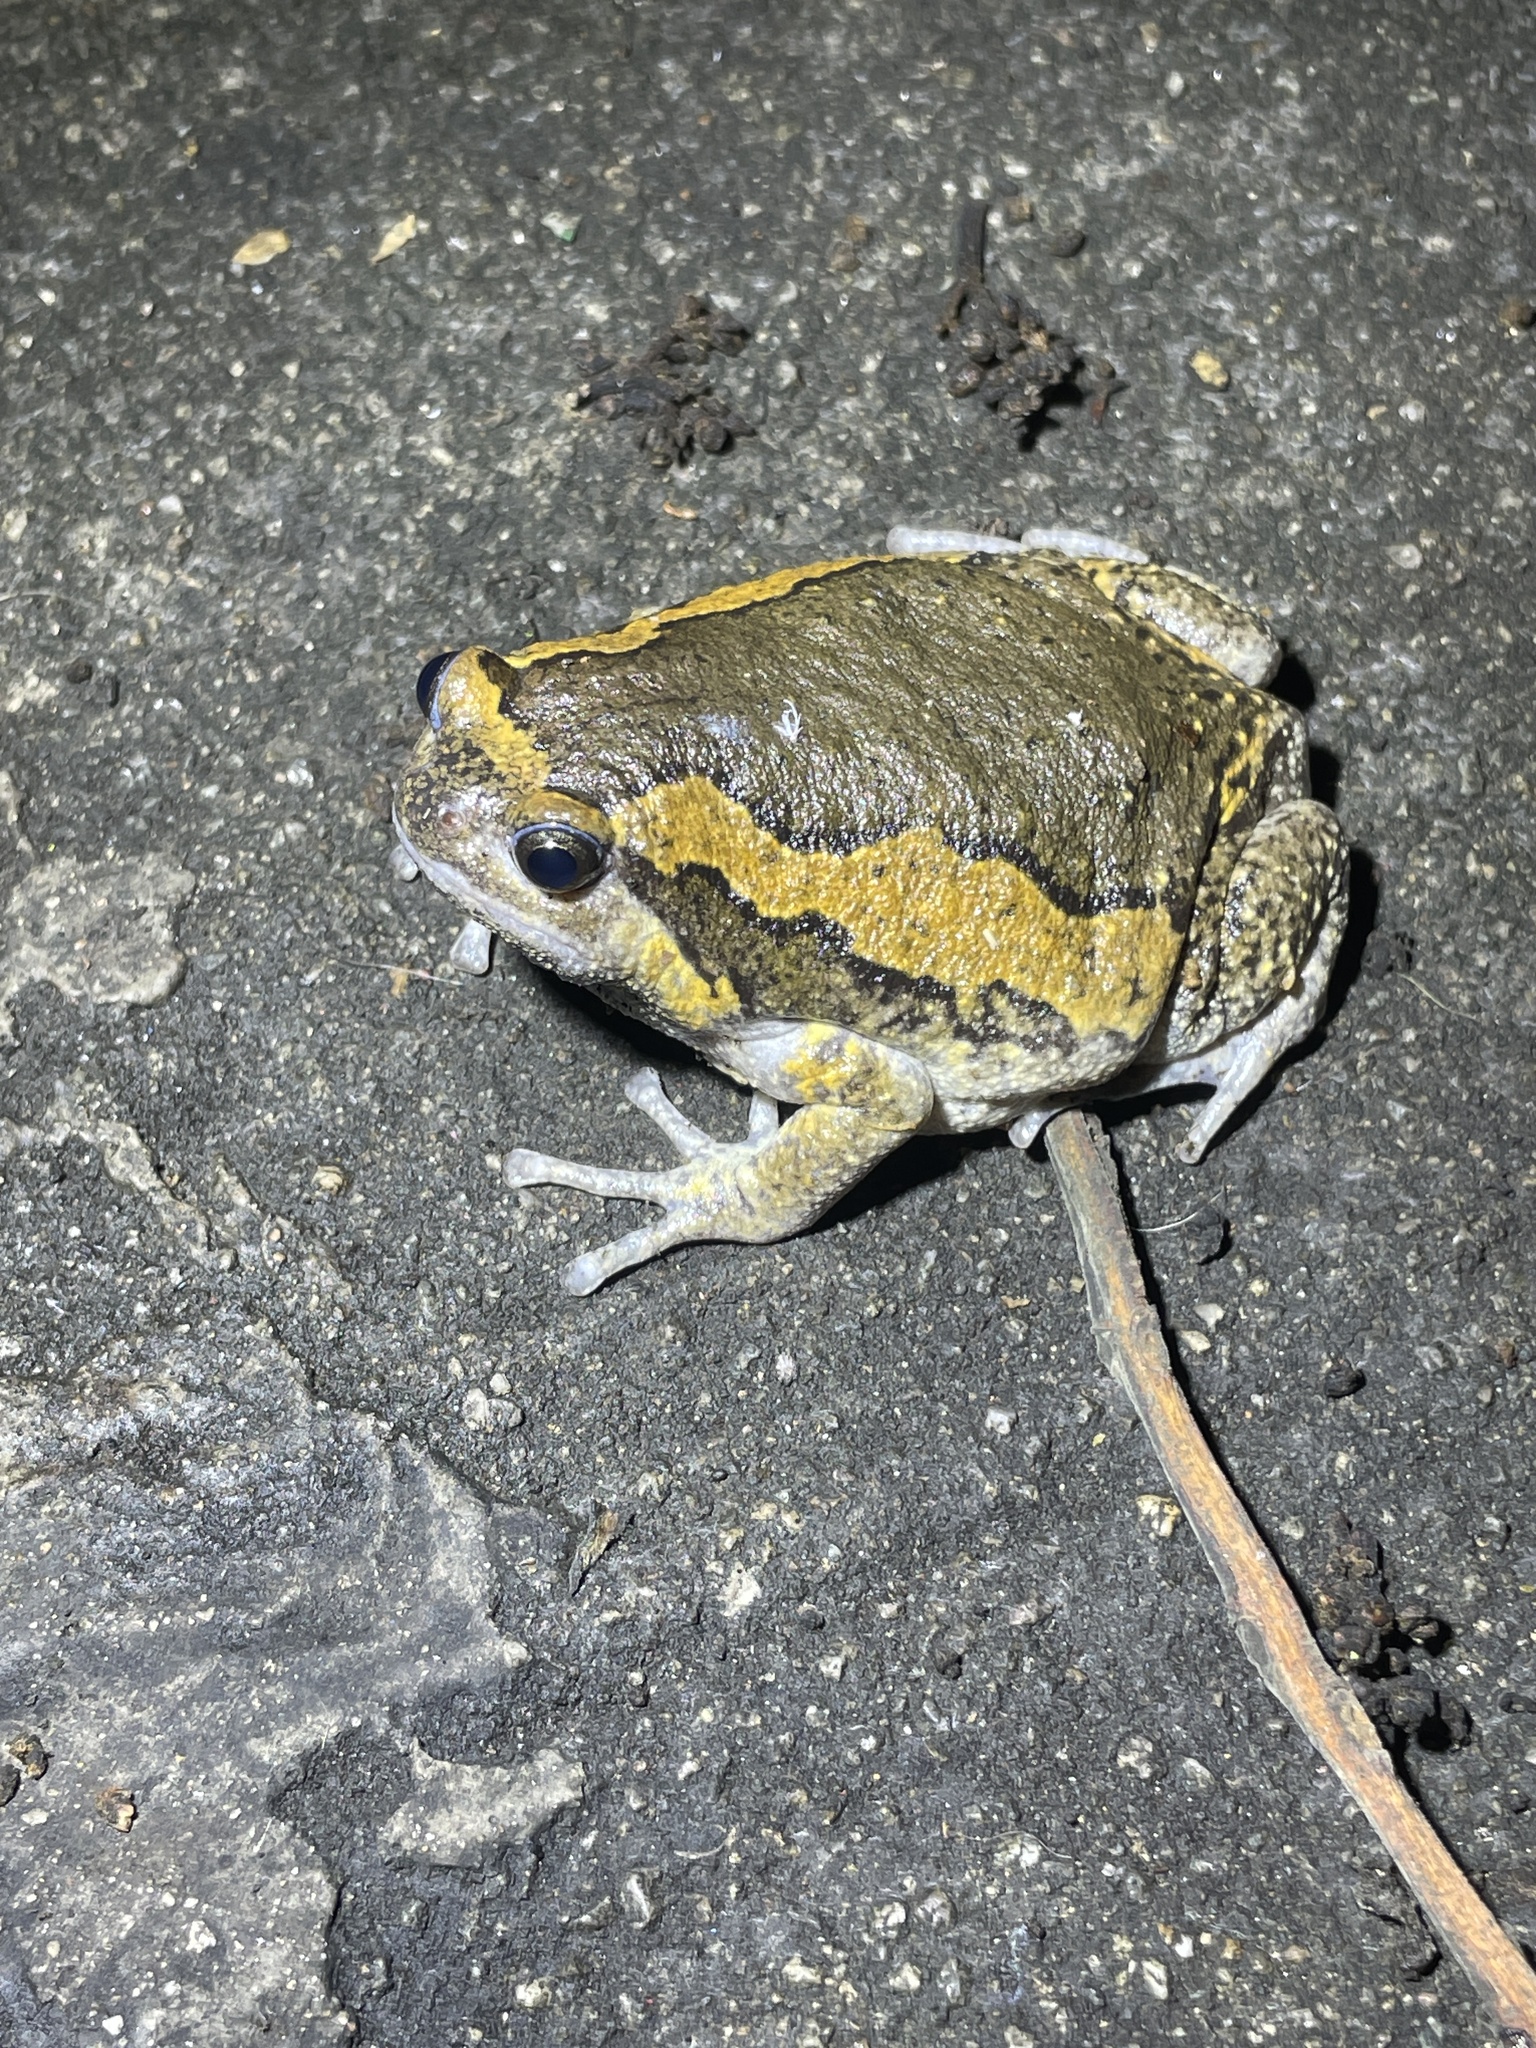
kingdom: Animalia
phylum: Chordata
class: Amphibia
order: Anura
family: Microhylidae
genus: Kaloula
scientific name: Kaloula pulchra
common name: Common,banded bullfrog
